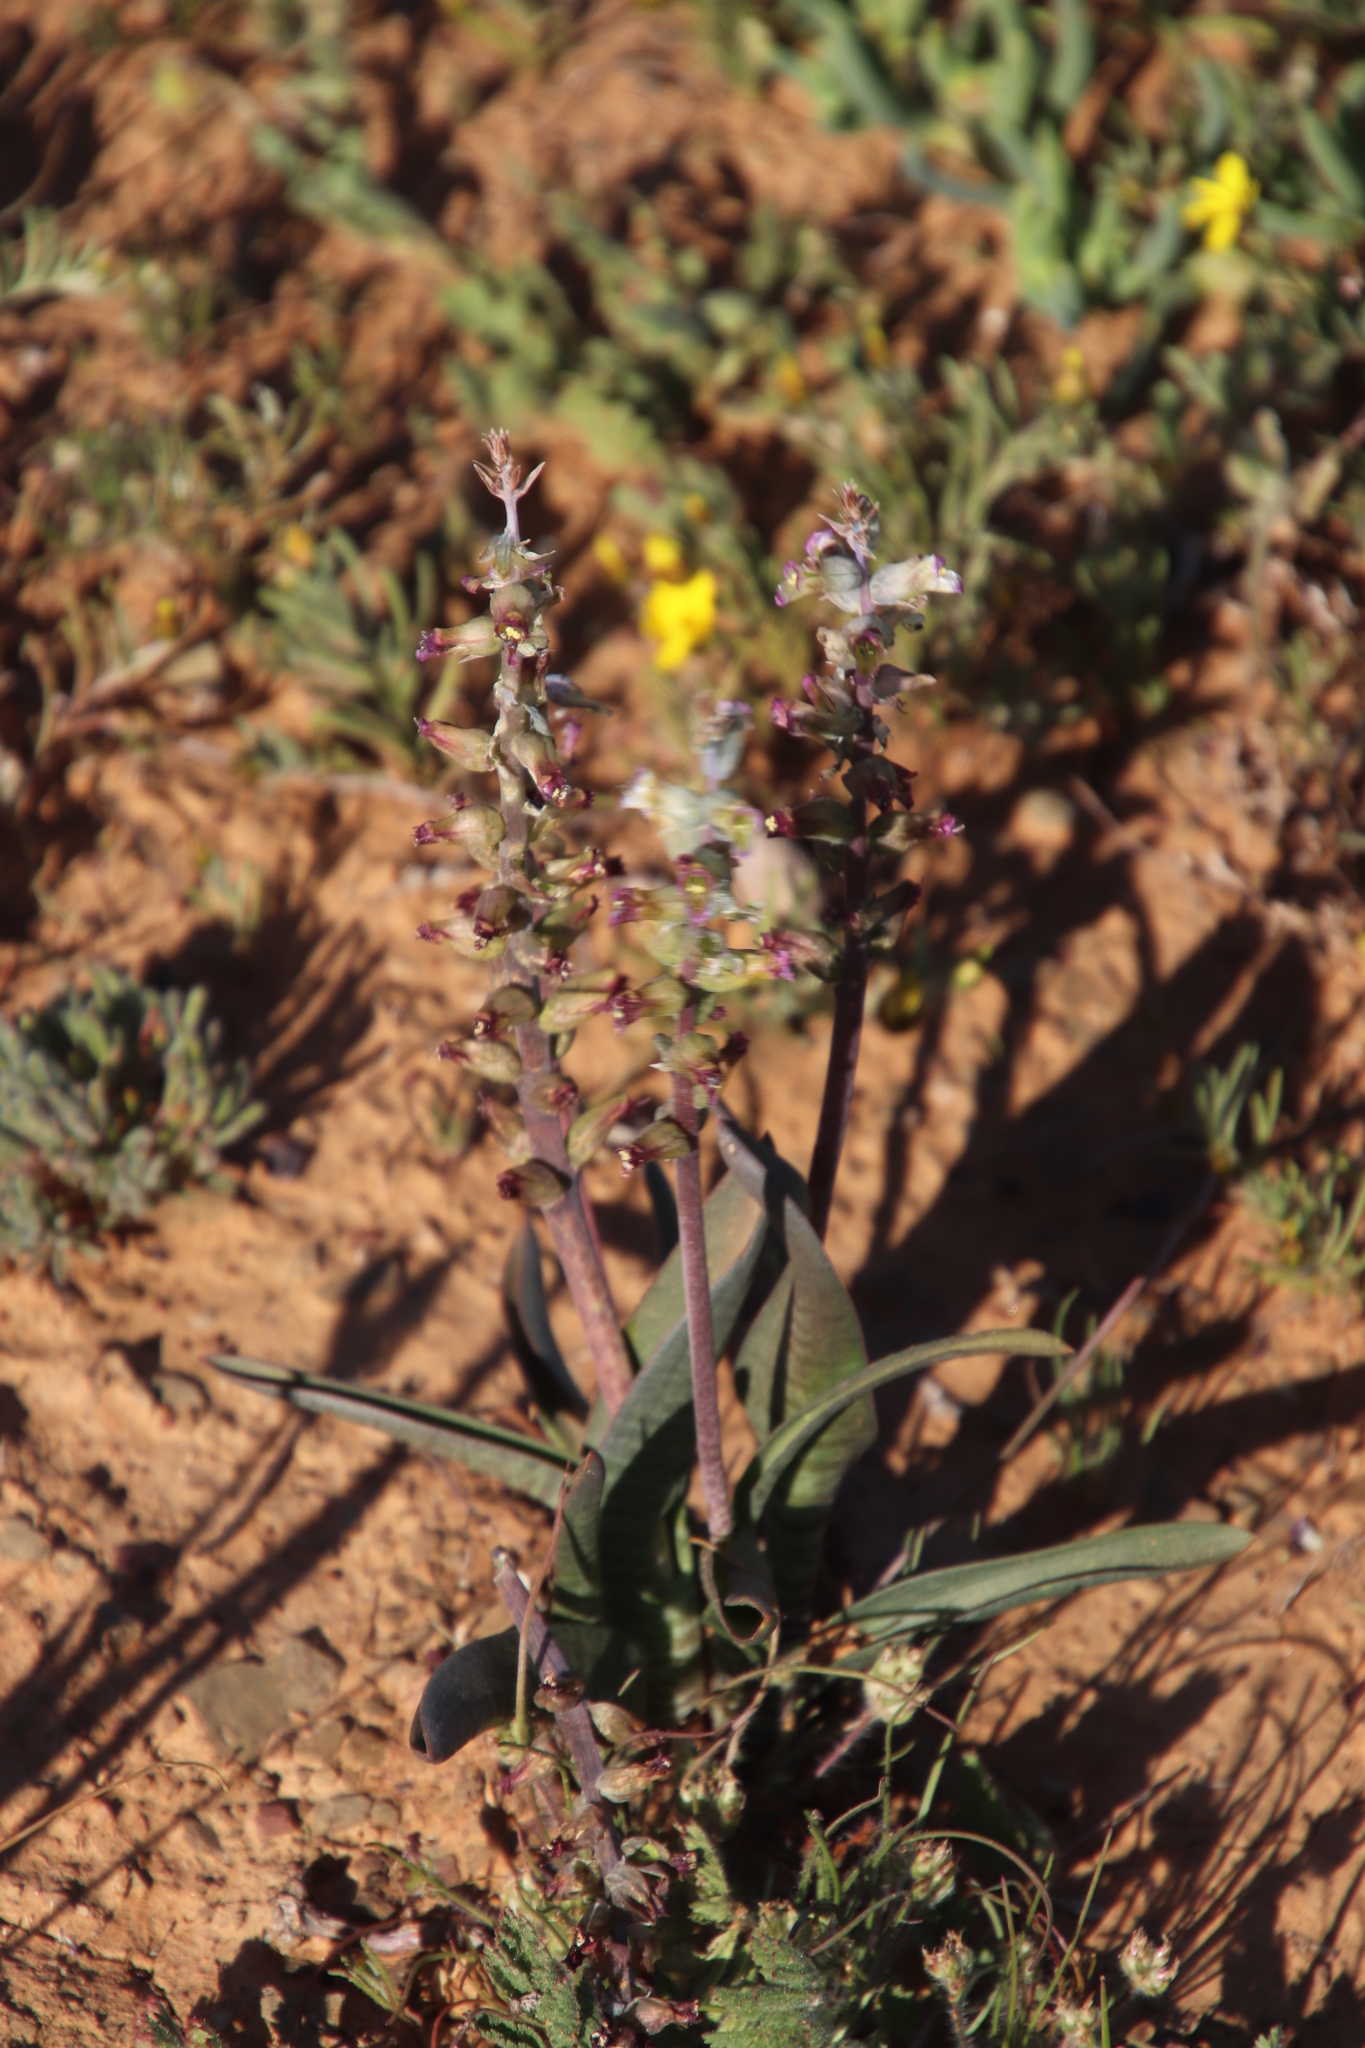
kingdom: Plantae
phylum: Tracheophyta
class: Liliopsida
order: Asparagales
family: Asparagaceae
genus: Lachenalia
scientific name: Lachenalia obscura
